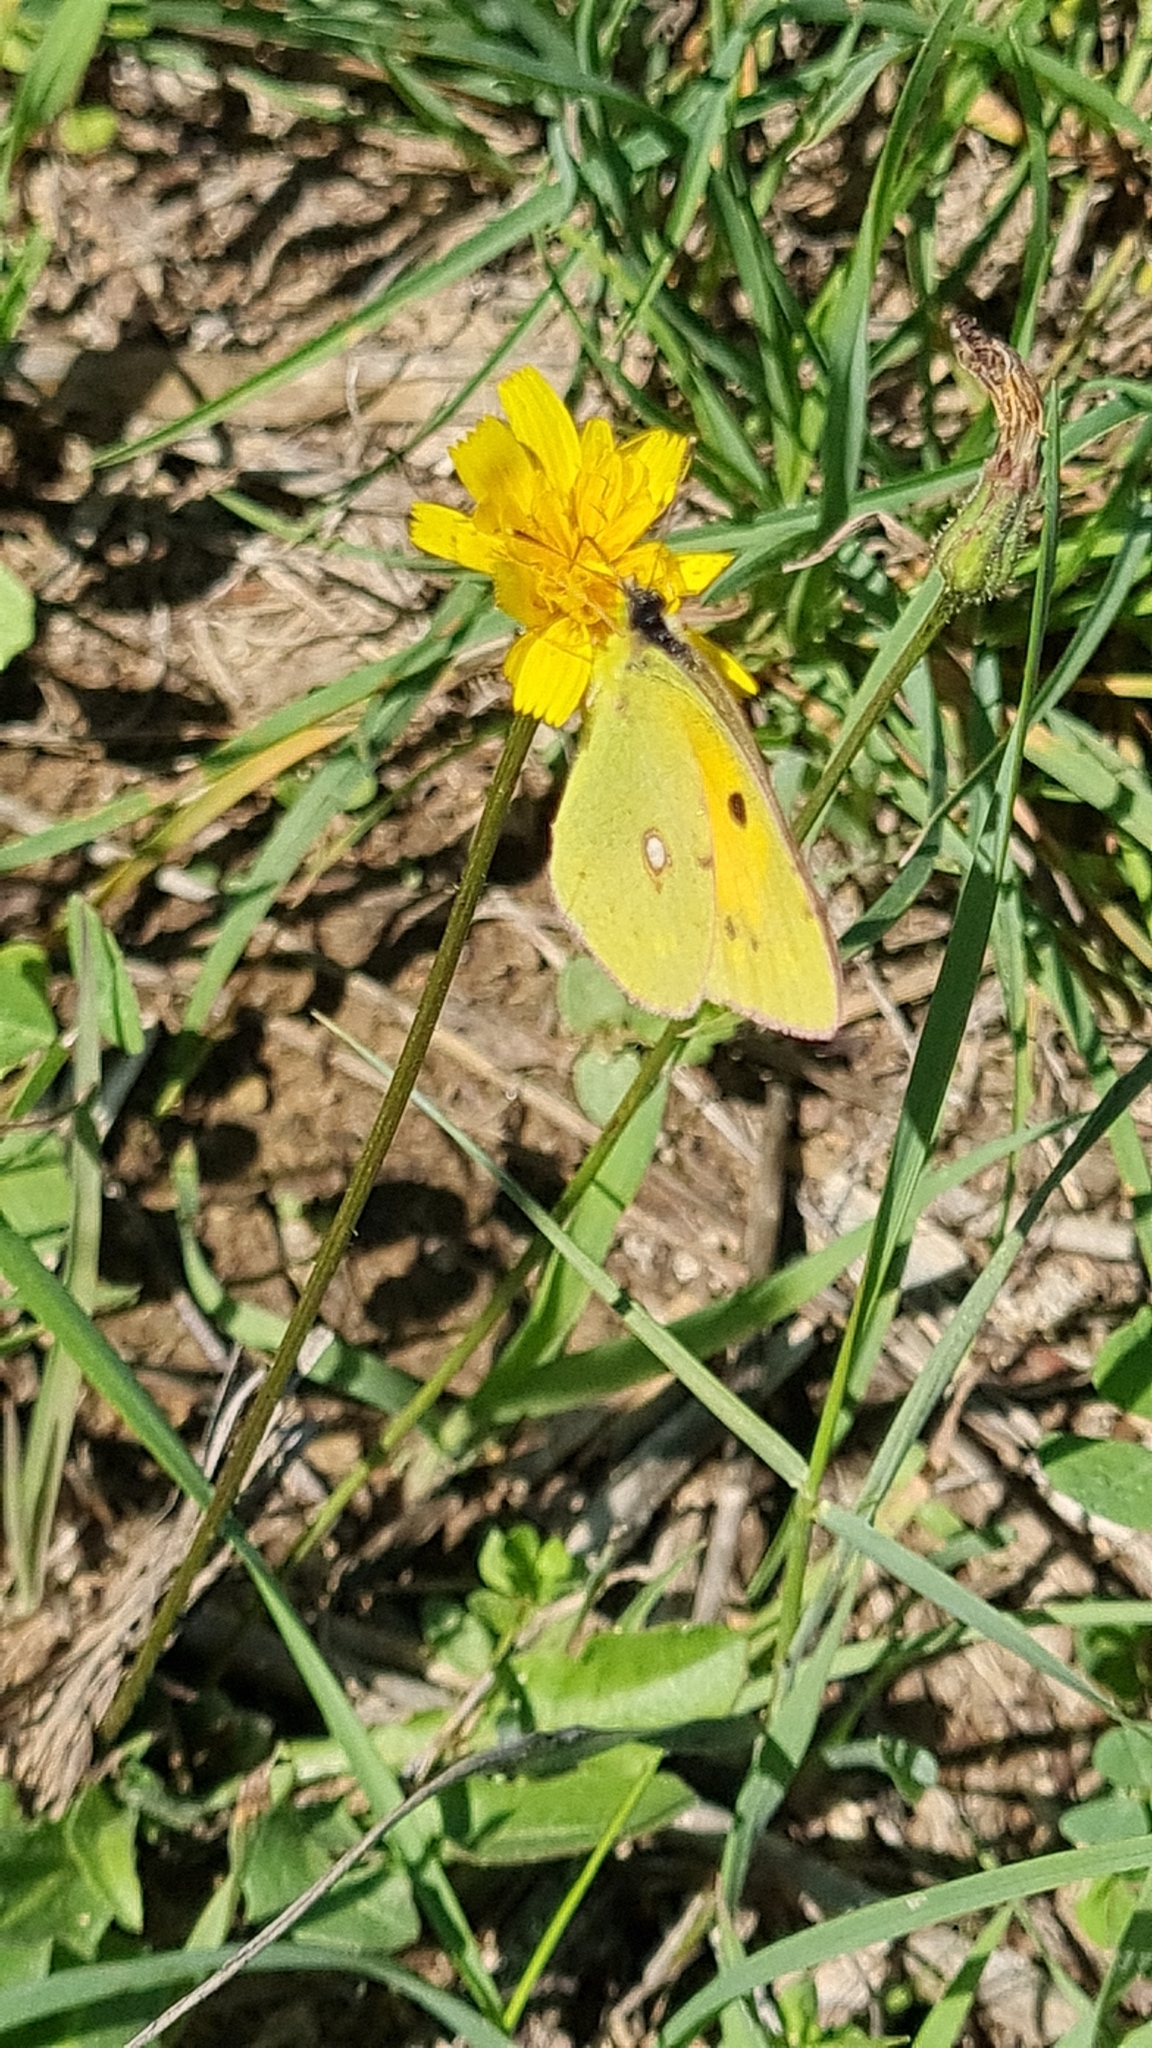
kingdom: Animalia
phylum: Arthropoda
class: Insecta
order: Lepidoptera
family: Pieridae
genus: Colias
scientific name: Colias croceus
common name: Clouded yellow
